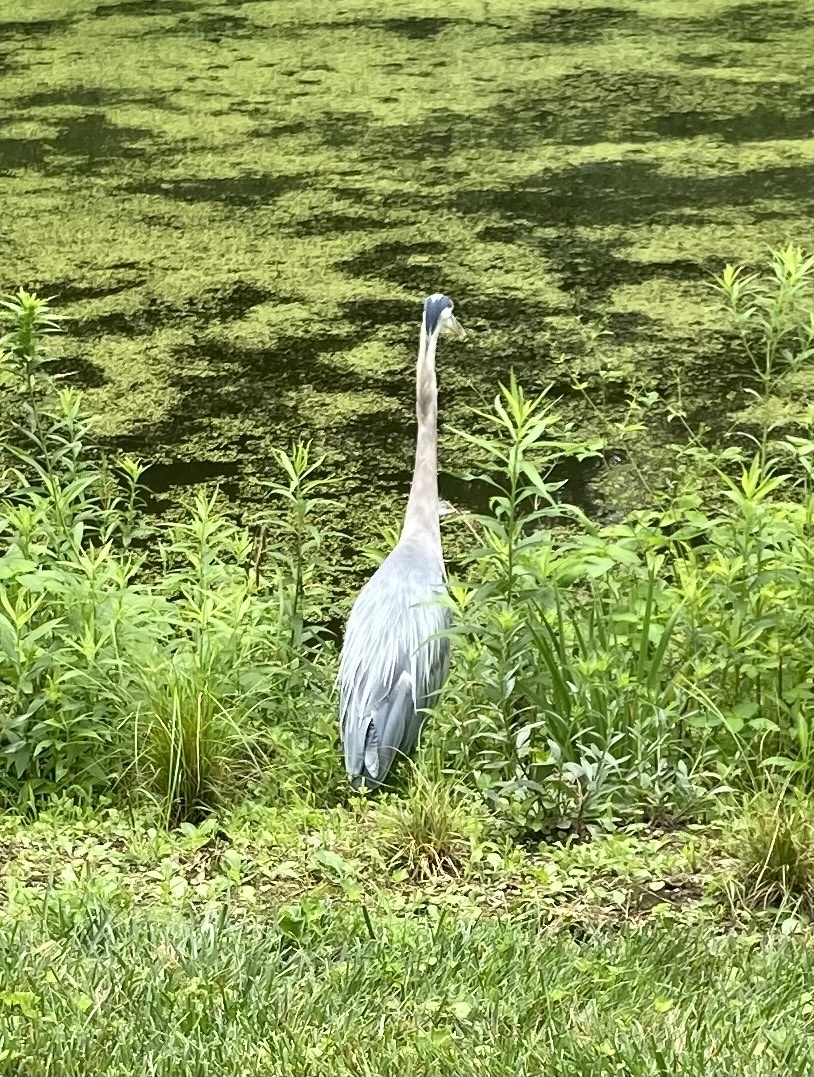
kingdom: Animalia
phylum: Chordata
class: Aves
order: Pelecaniformes
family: Ardeidae
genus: Ardea
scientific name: Ardea herodias
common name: Great blue heron
